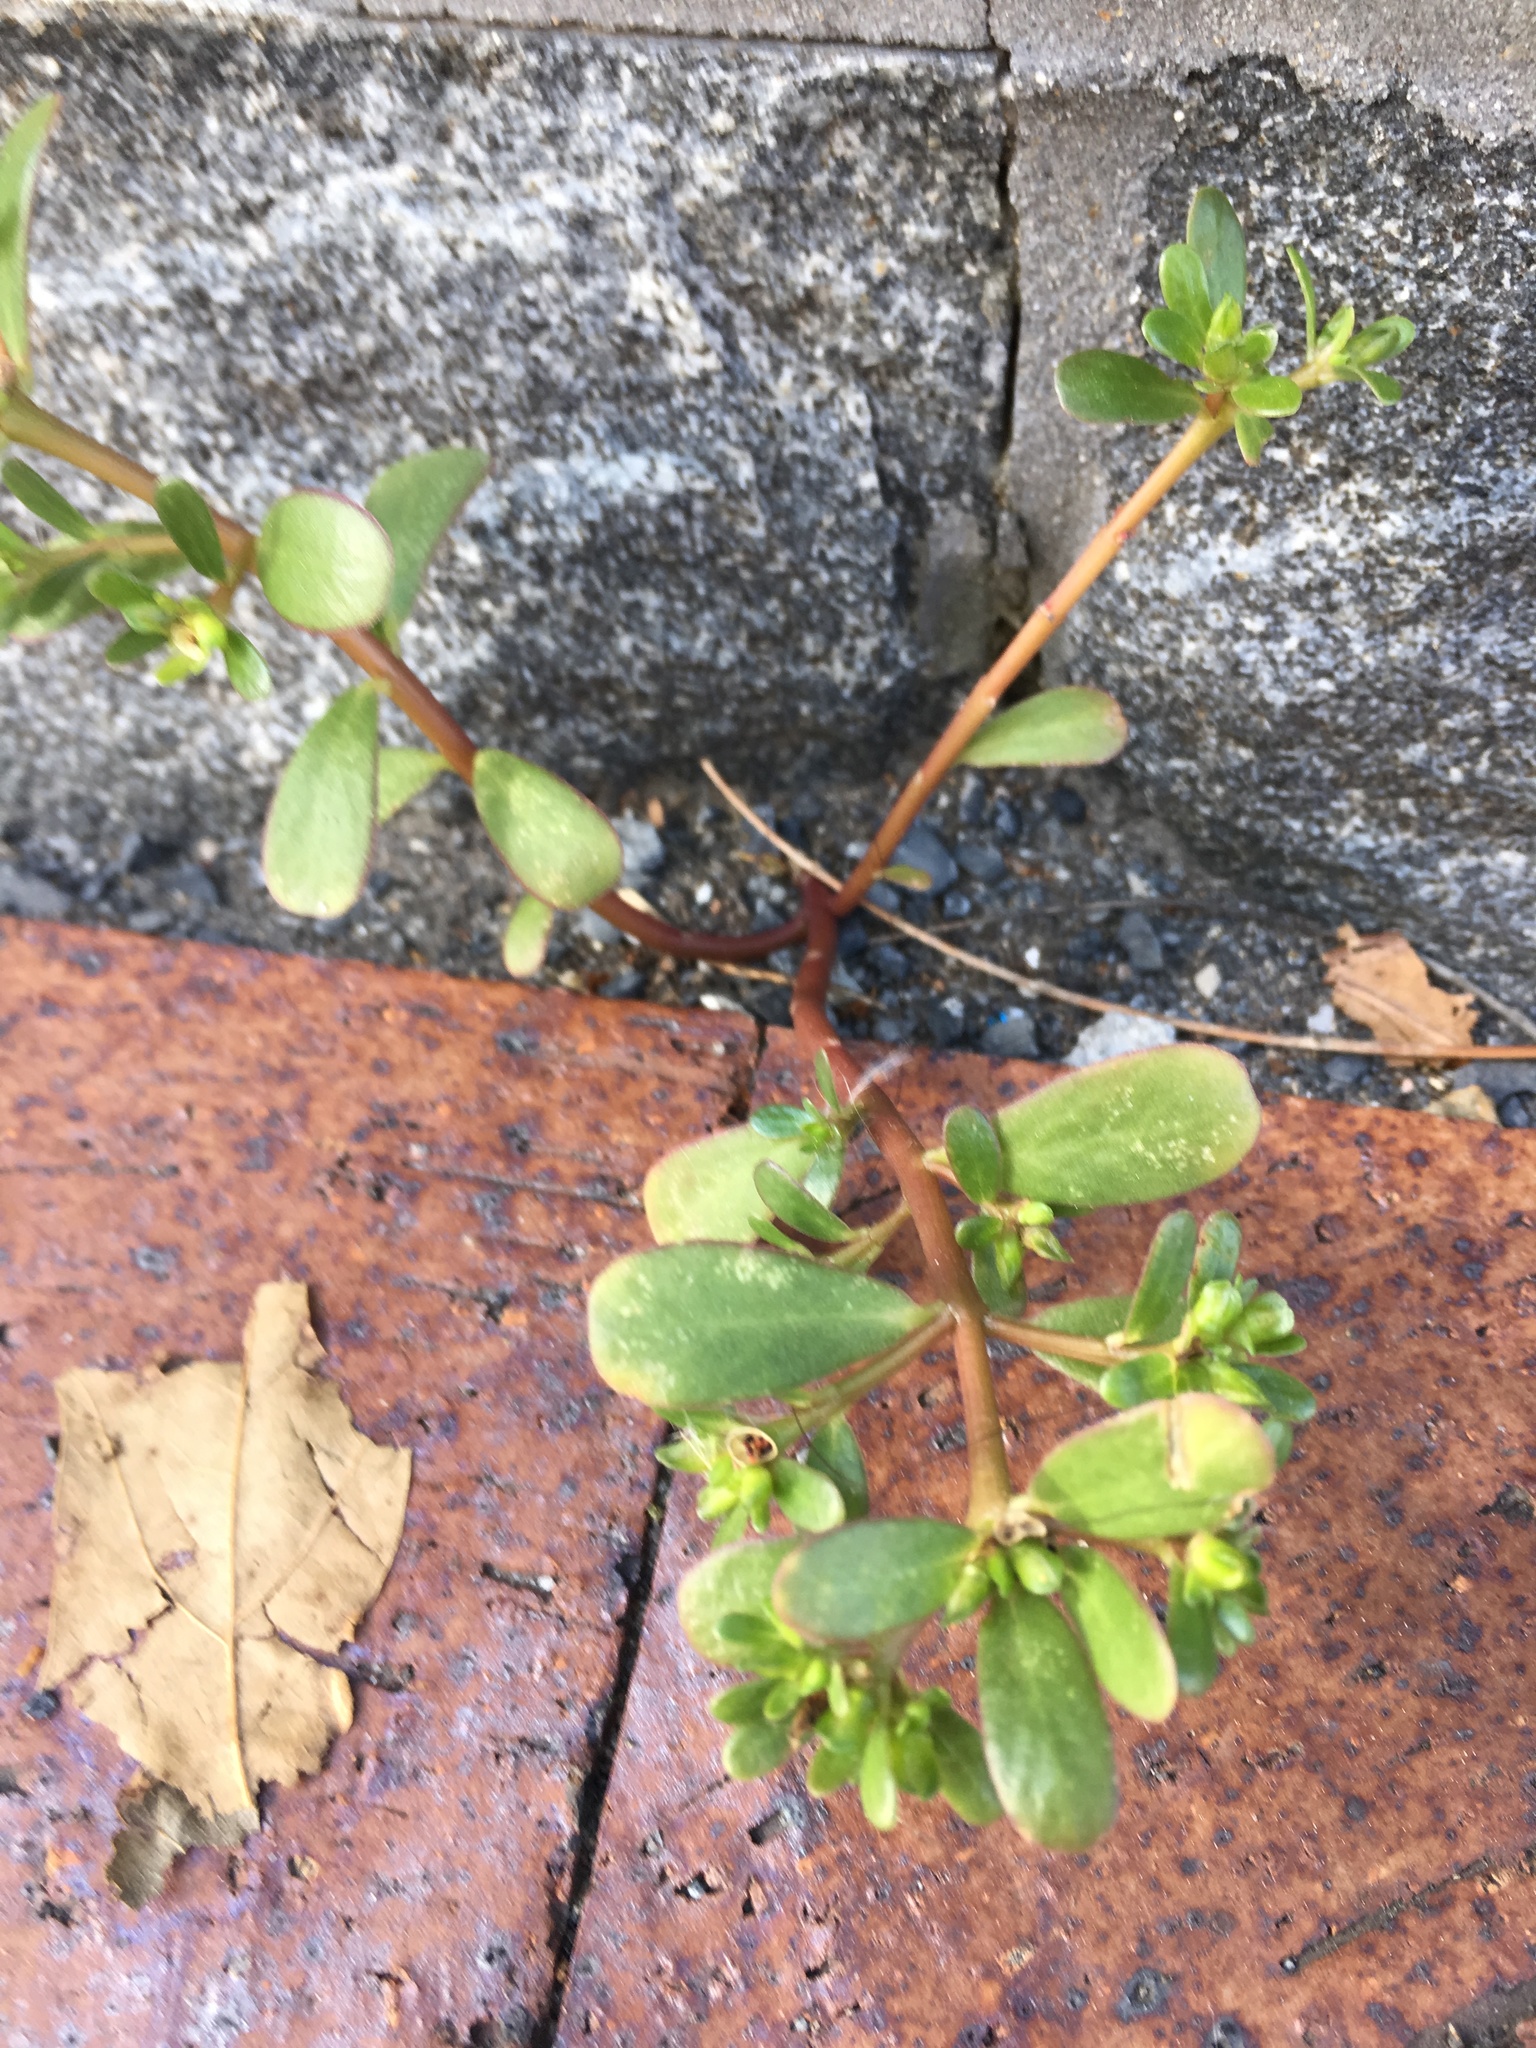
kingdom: Plantae
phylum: Tracheophyta
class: Magnoliopsida
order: Caryophyllales
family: Portulacaceae
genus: Portulaca
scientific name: Portulaca oleracea
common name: Common purslane
